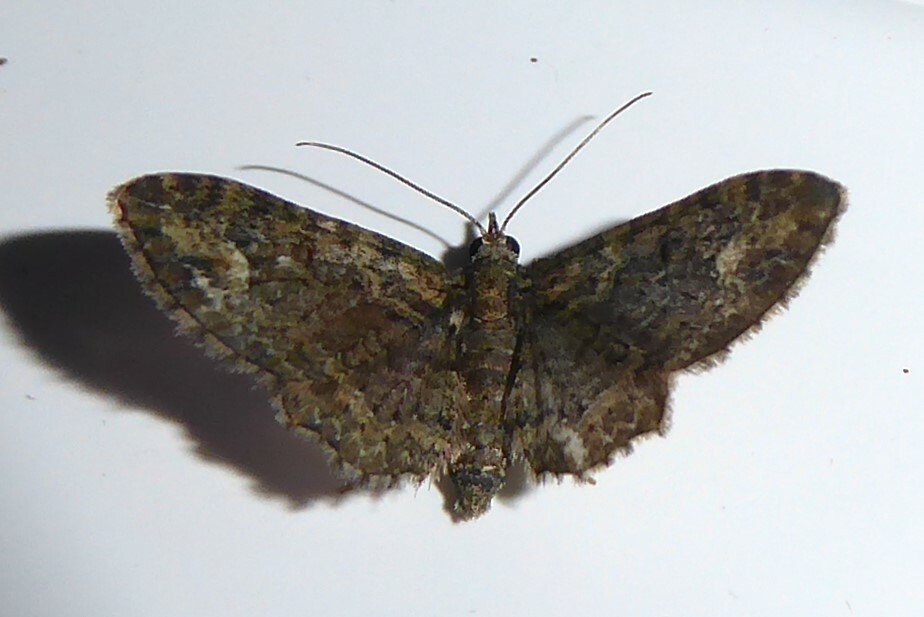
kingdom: Animalia
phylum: Arthropoda
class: Insecta
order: Lepidoptera
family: Geometridae
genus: Pasiphilodes
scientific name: Pasiphilodes testulata
